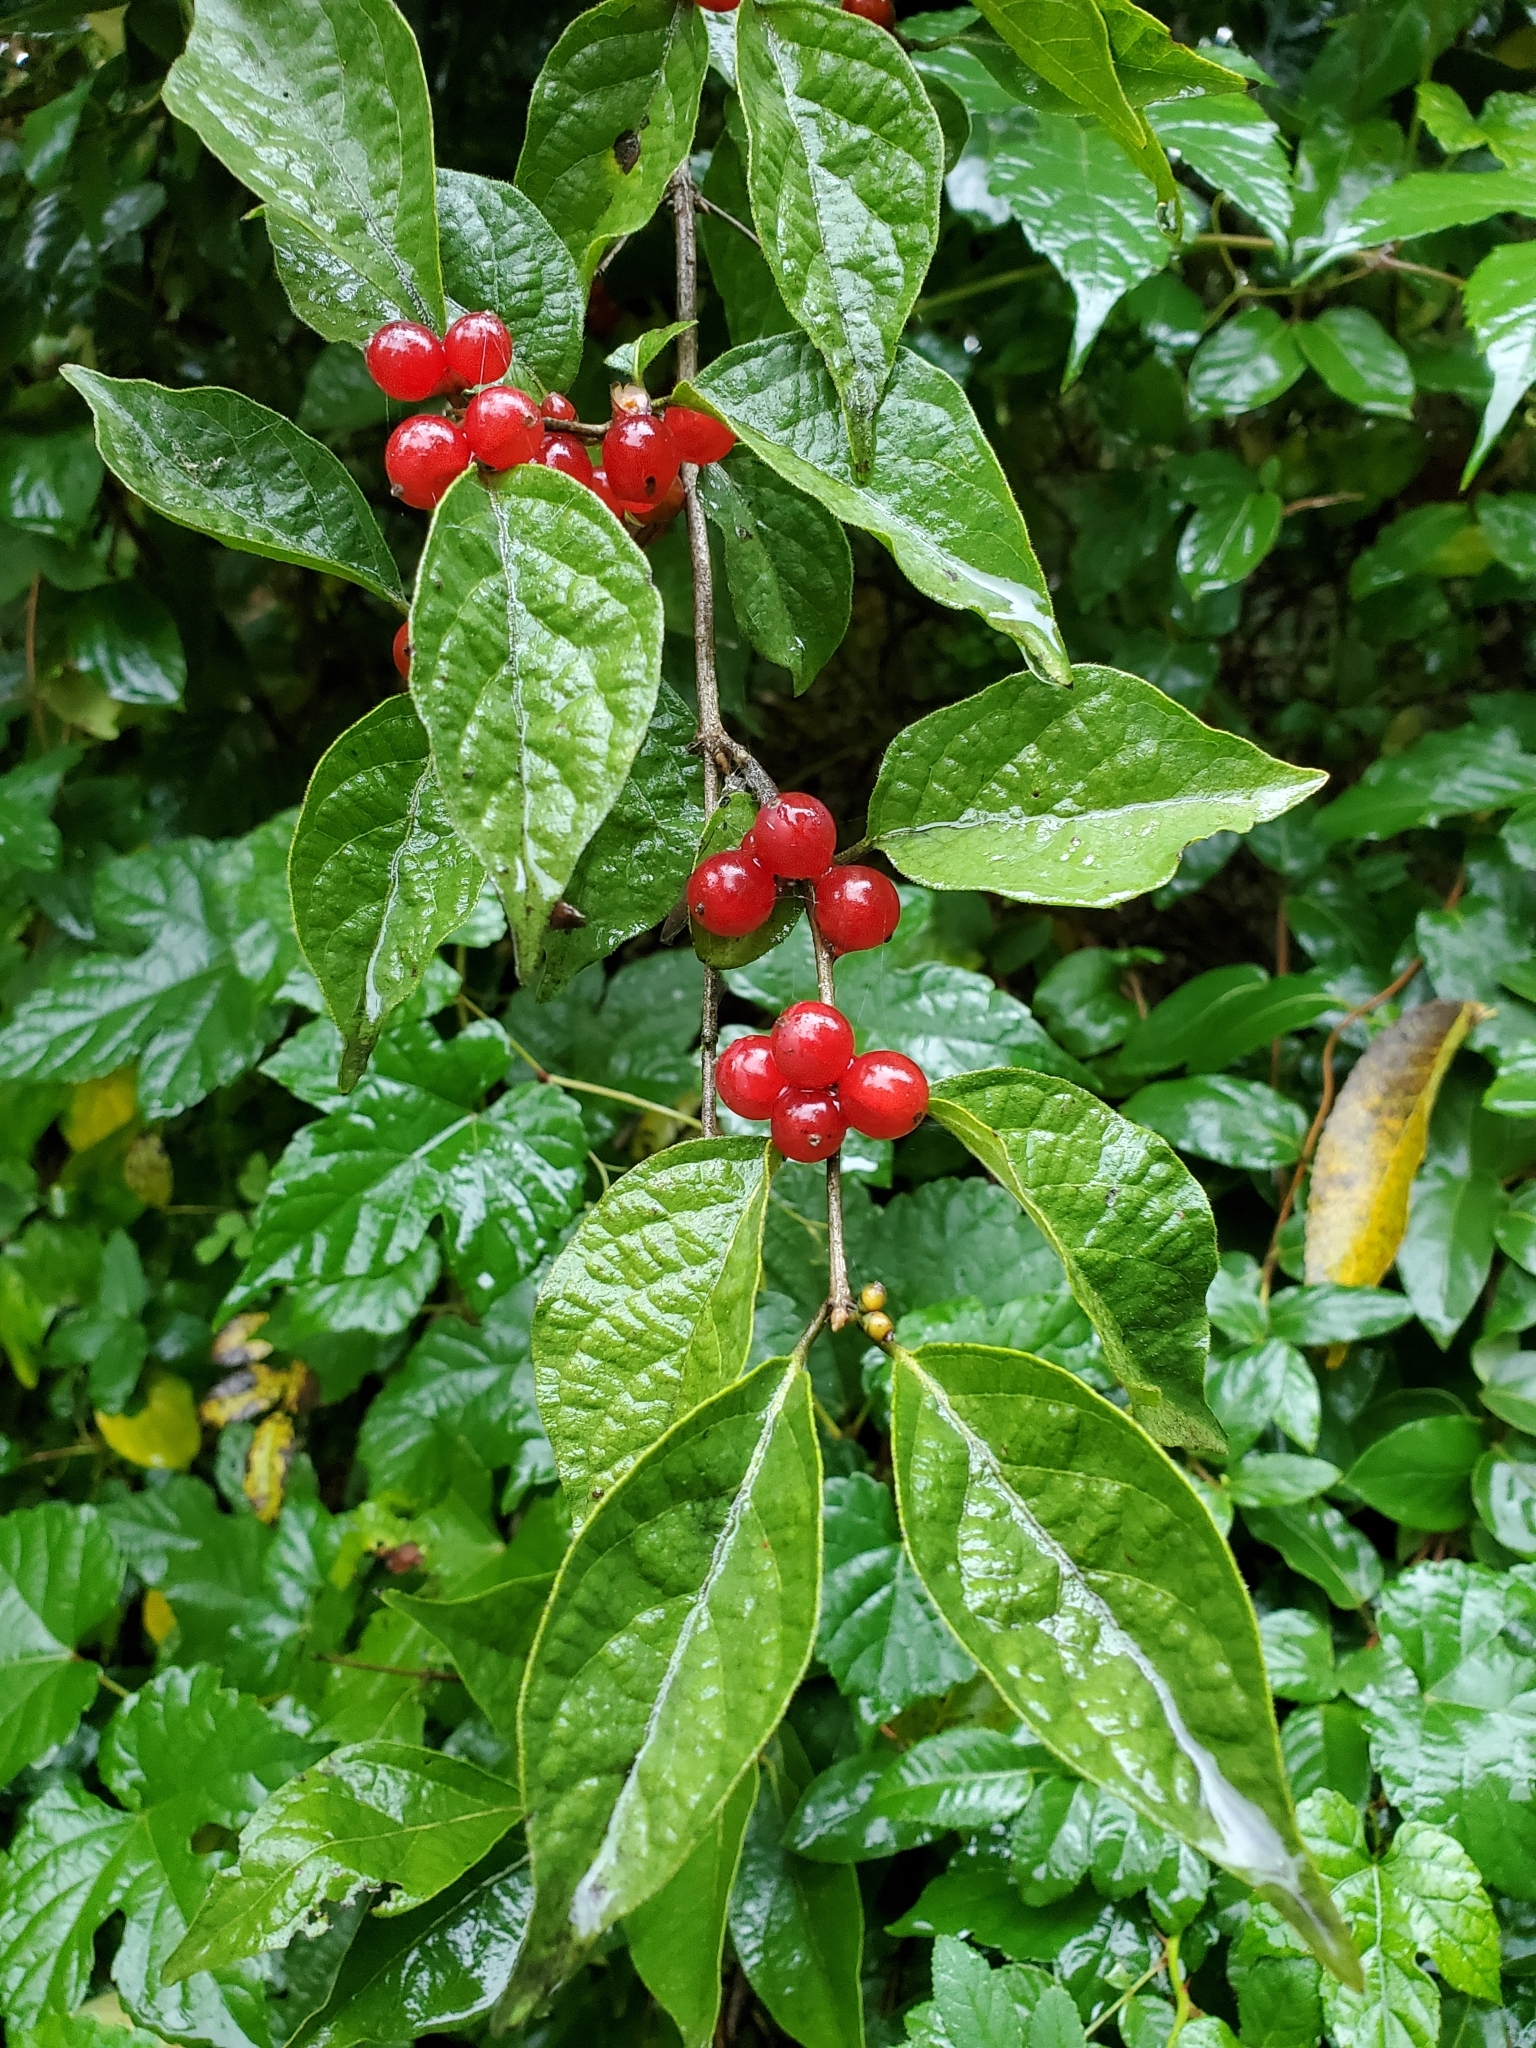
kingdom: Plantae
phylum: Tracheophyta
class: Magnoliopsida
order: Dipsacales
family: Caprifoliaceae
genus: Lonicera
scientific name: Lonicera maackii
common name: Amur honeysuckle
